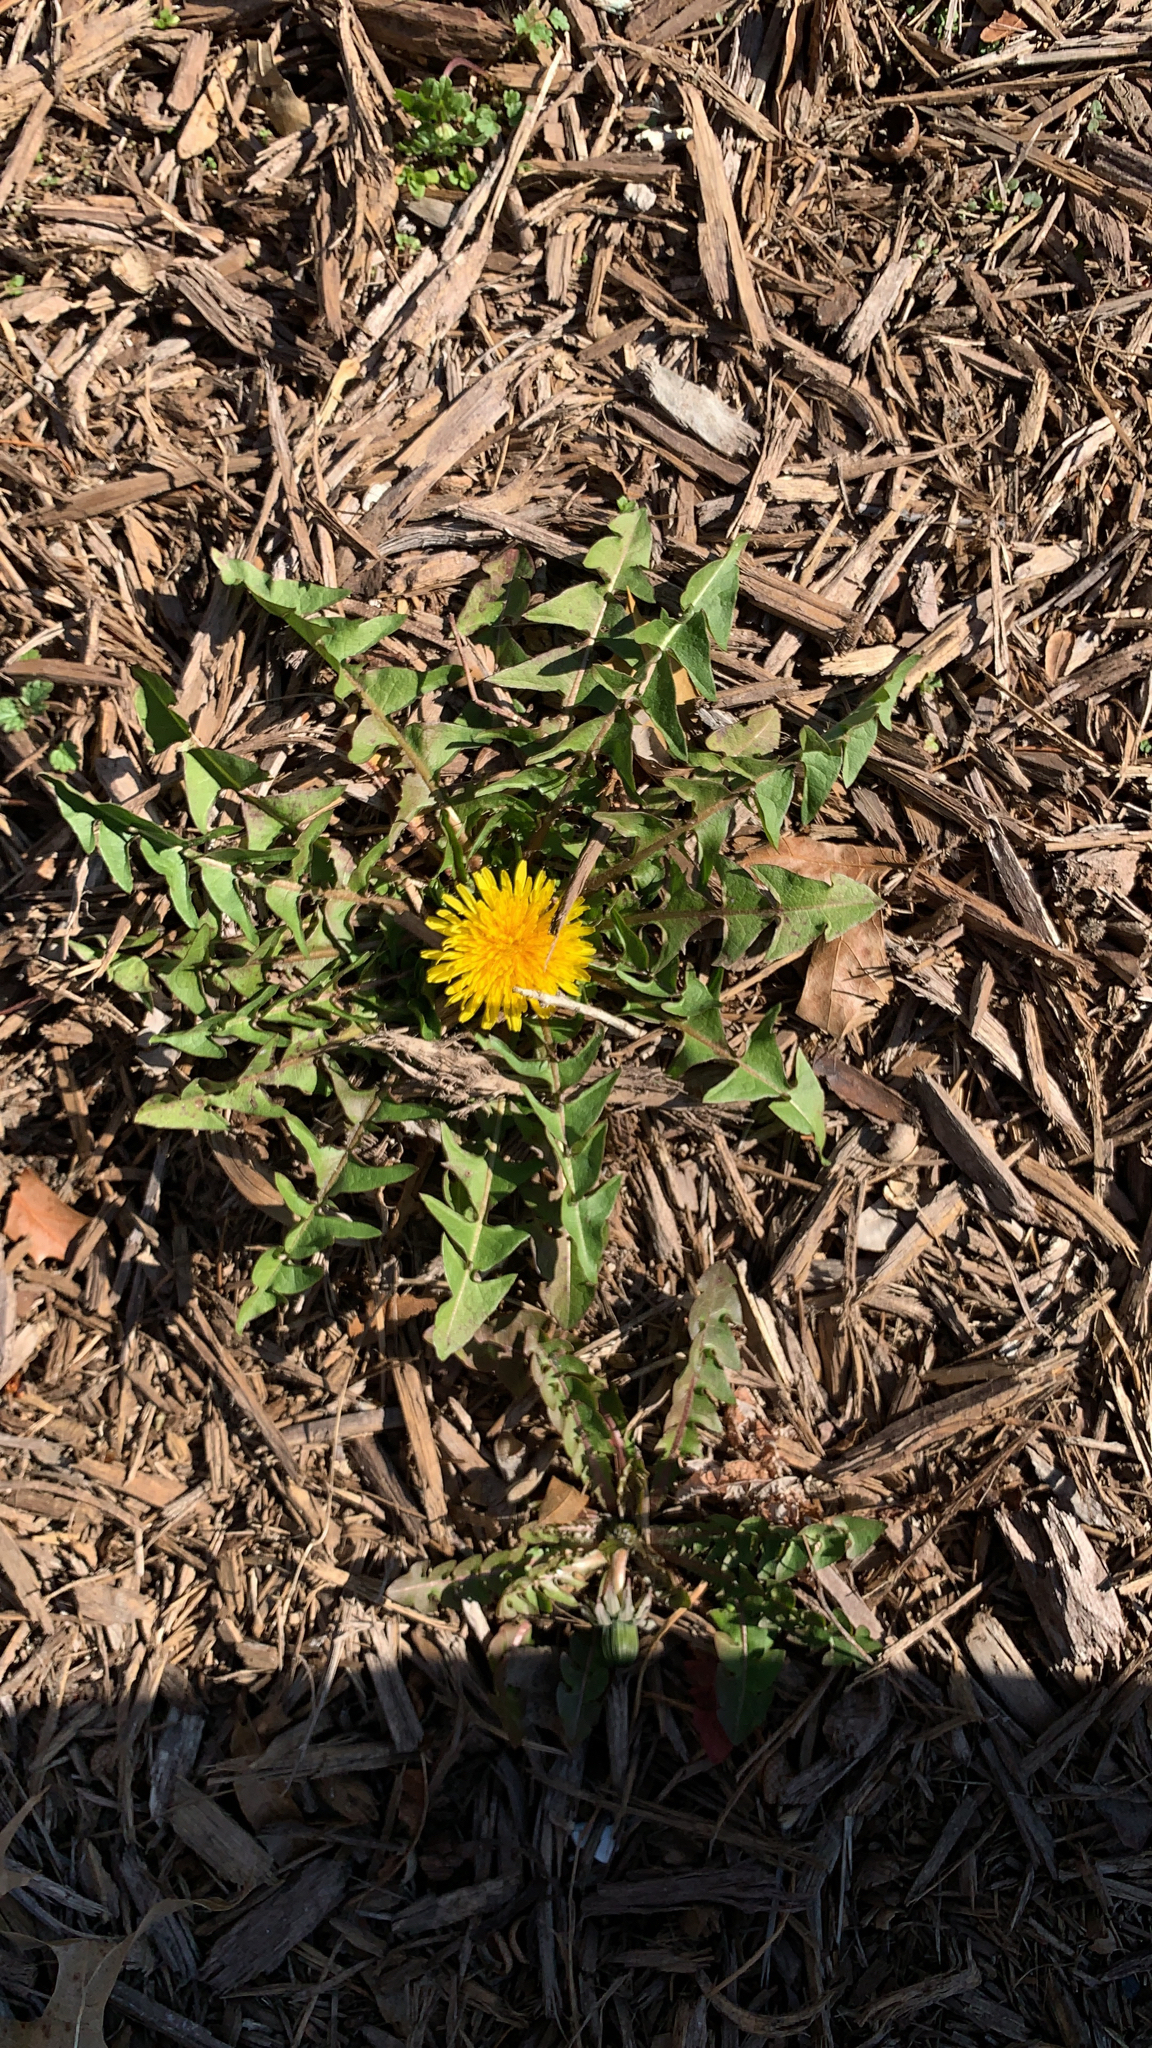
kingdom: Plantae
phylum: Tracheophyta
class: Magnoliopsida
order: Asterales
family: Asteraceae
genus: Taraxacum
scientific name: Taraxacum
